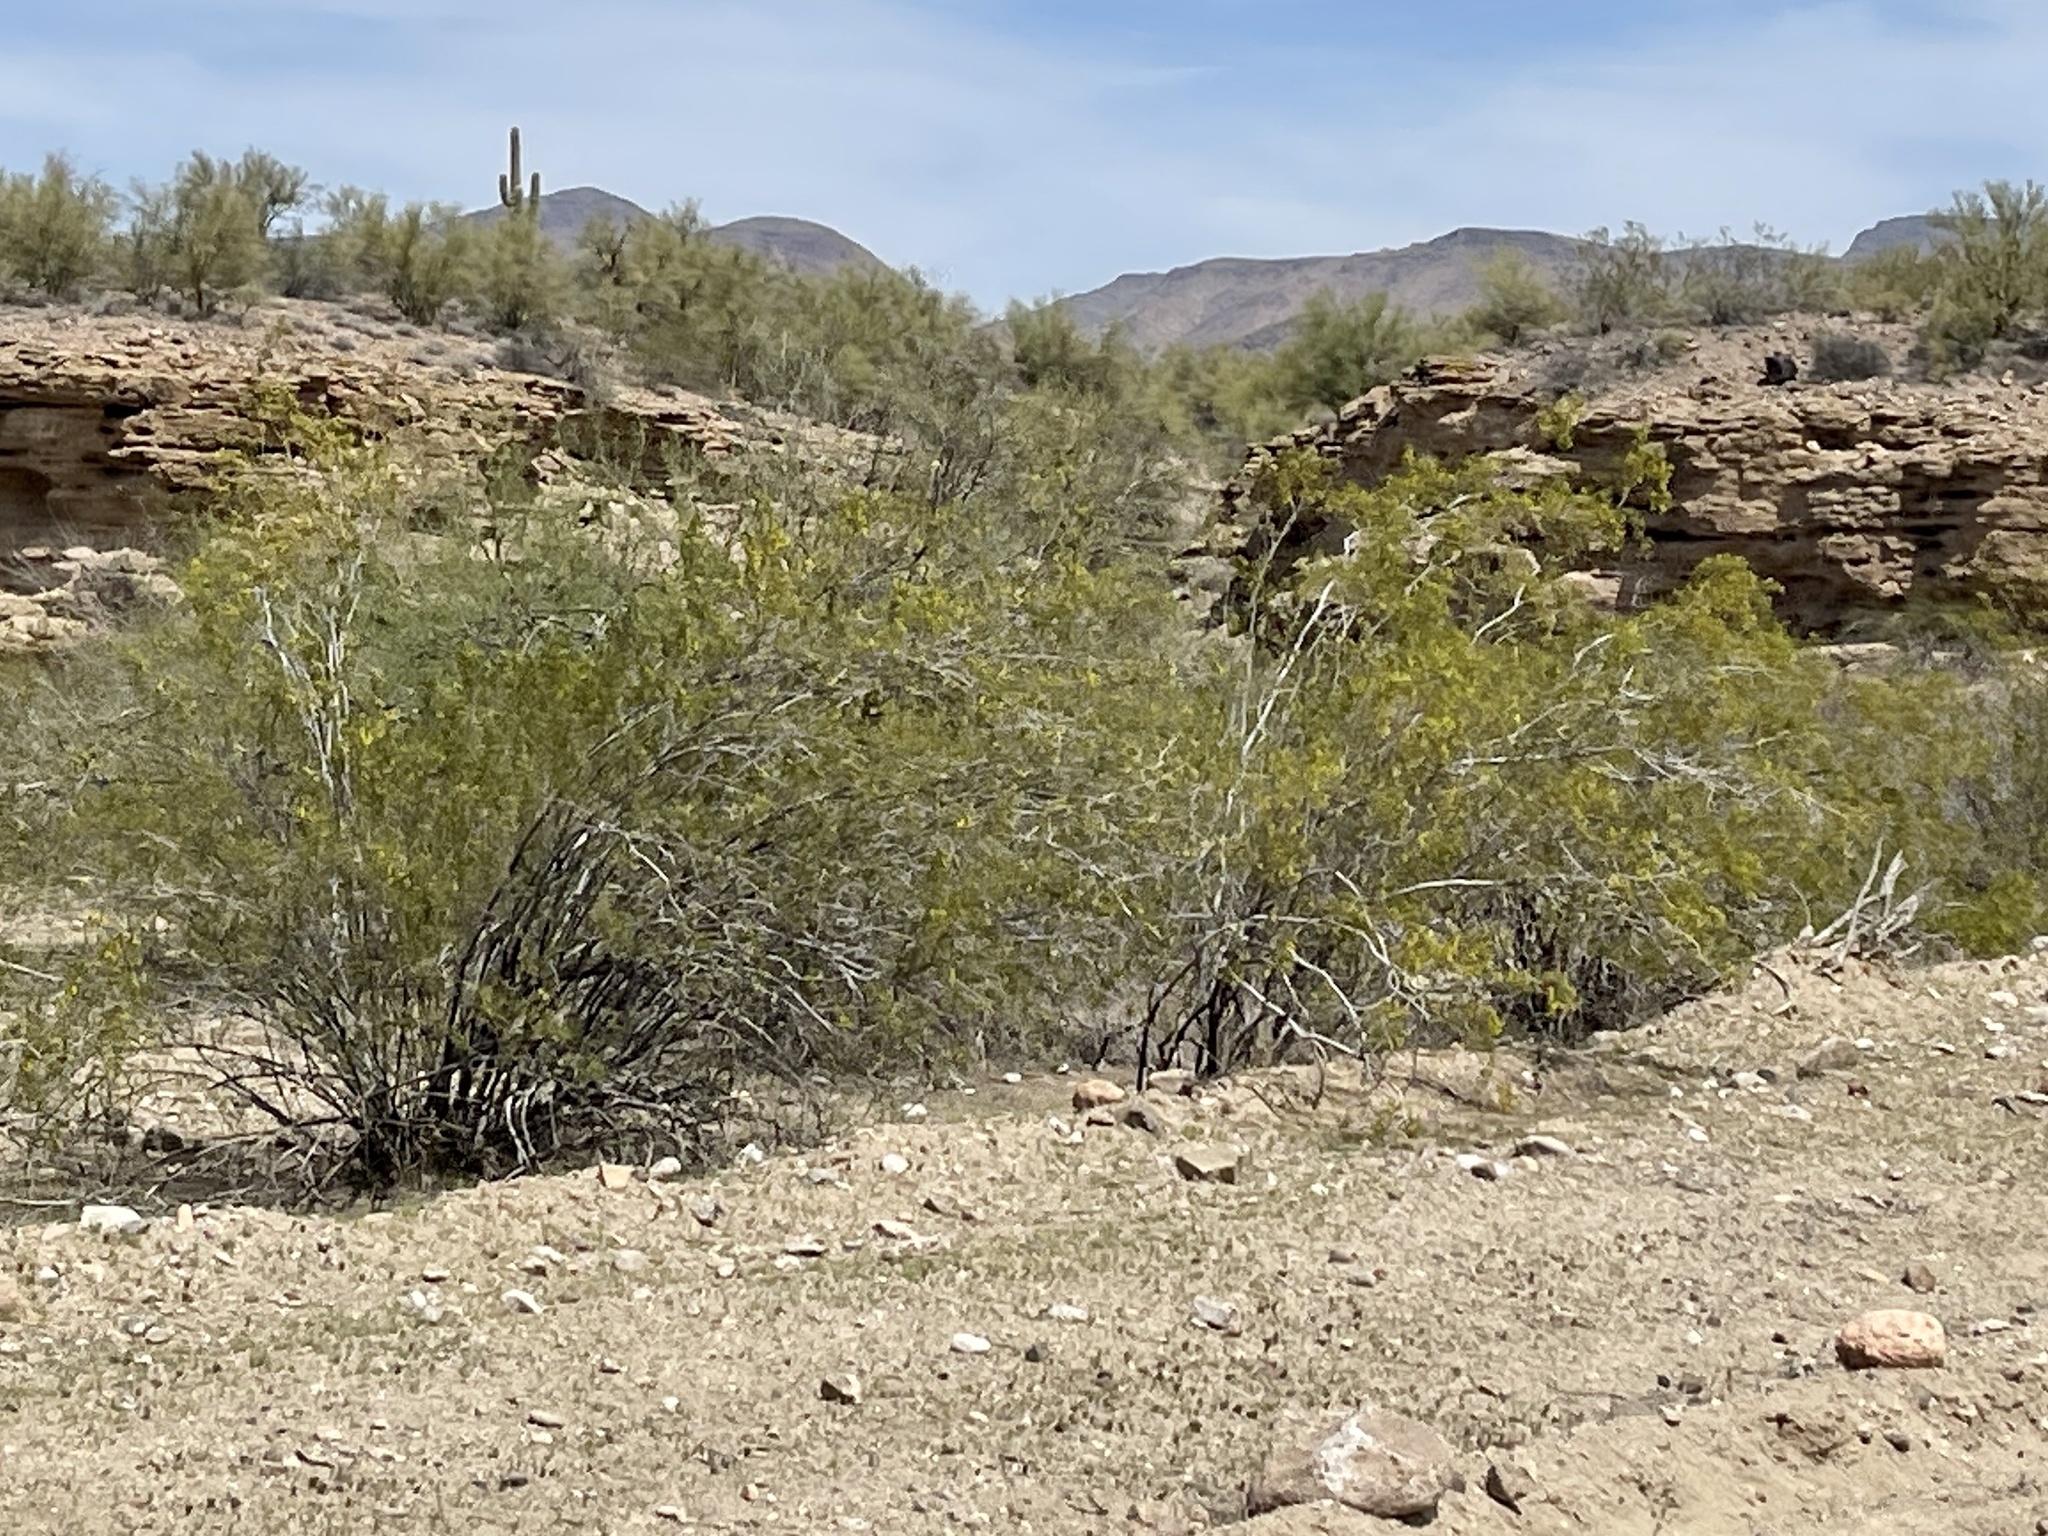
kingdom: Plantae
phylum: Tracheophyta
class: Magnoliopsida
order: Zygophyllales
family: Zygophyllaceae
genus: Larrea
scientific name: Larrea tridentata
